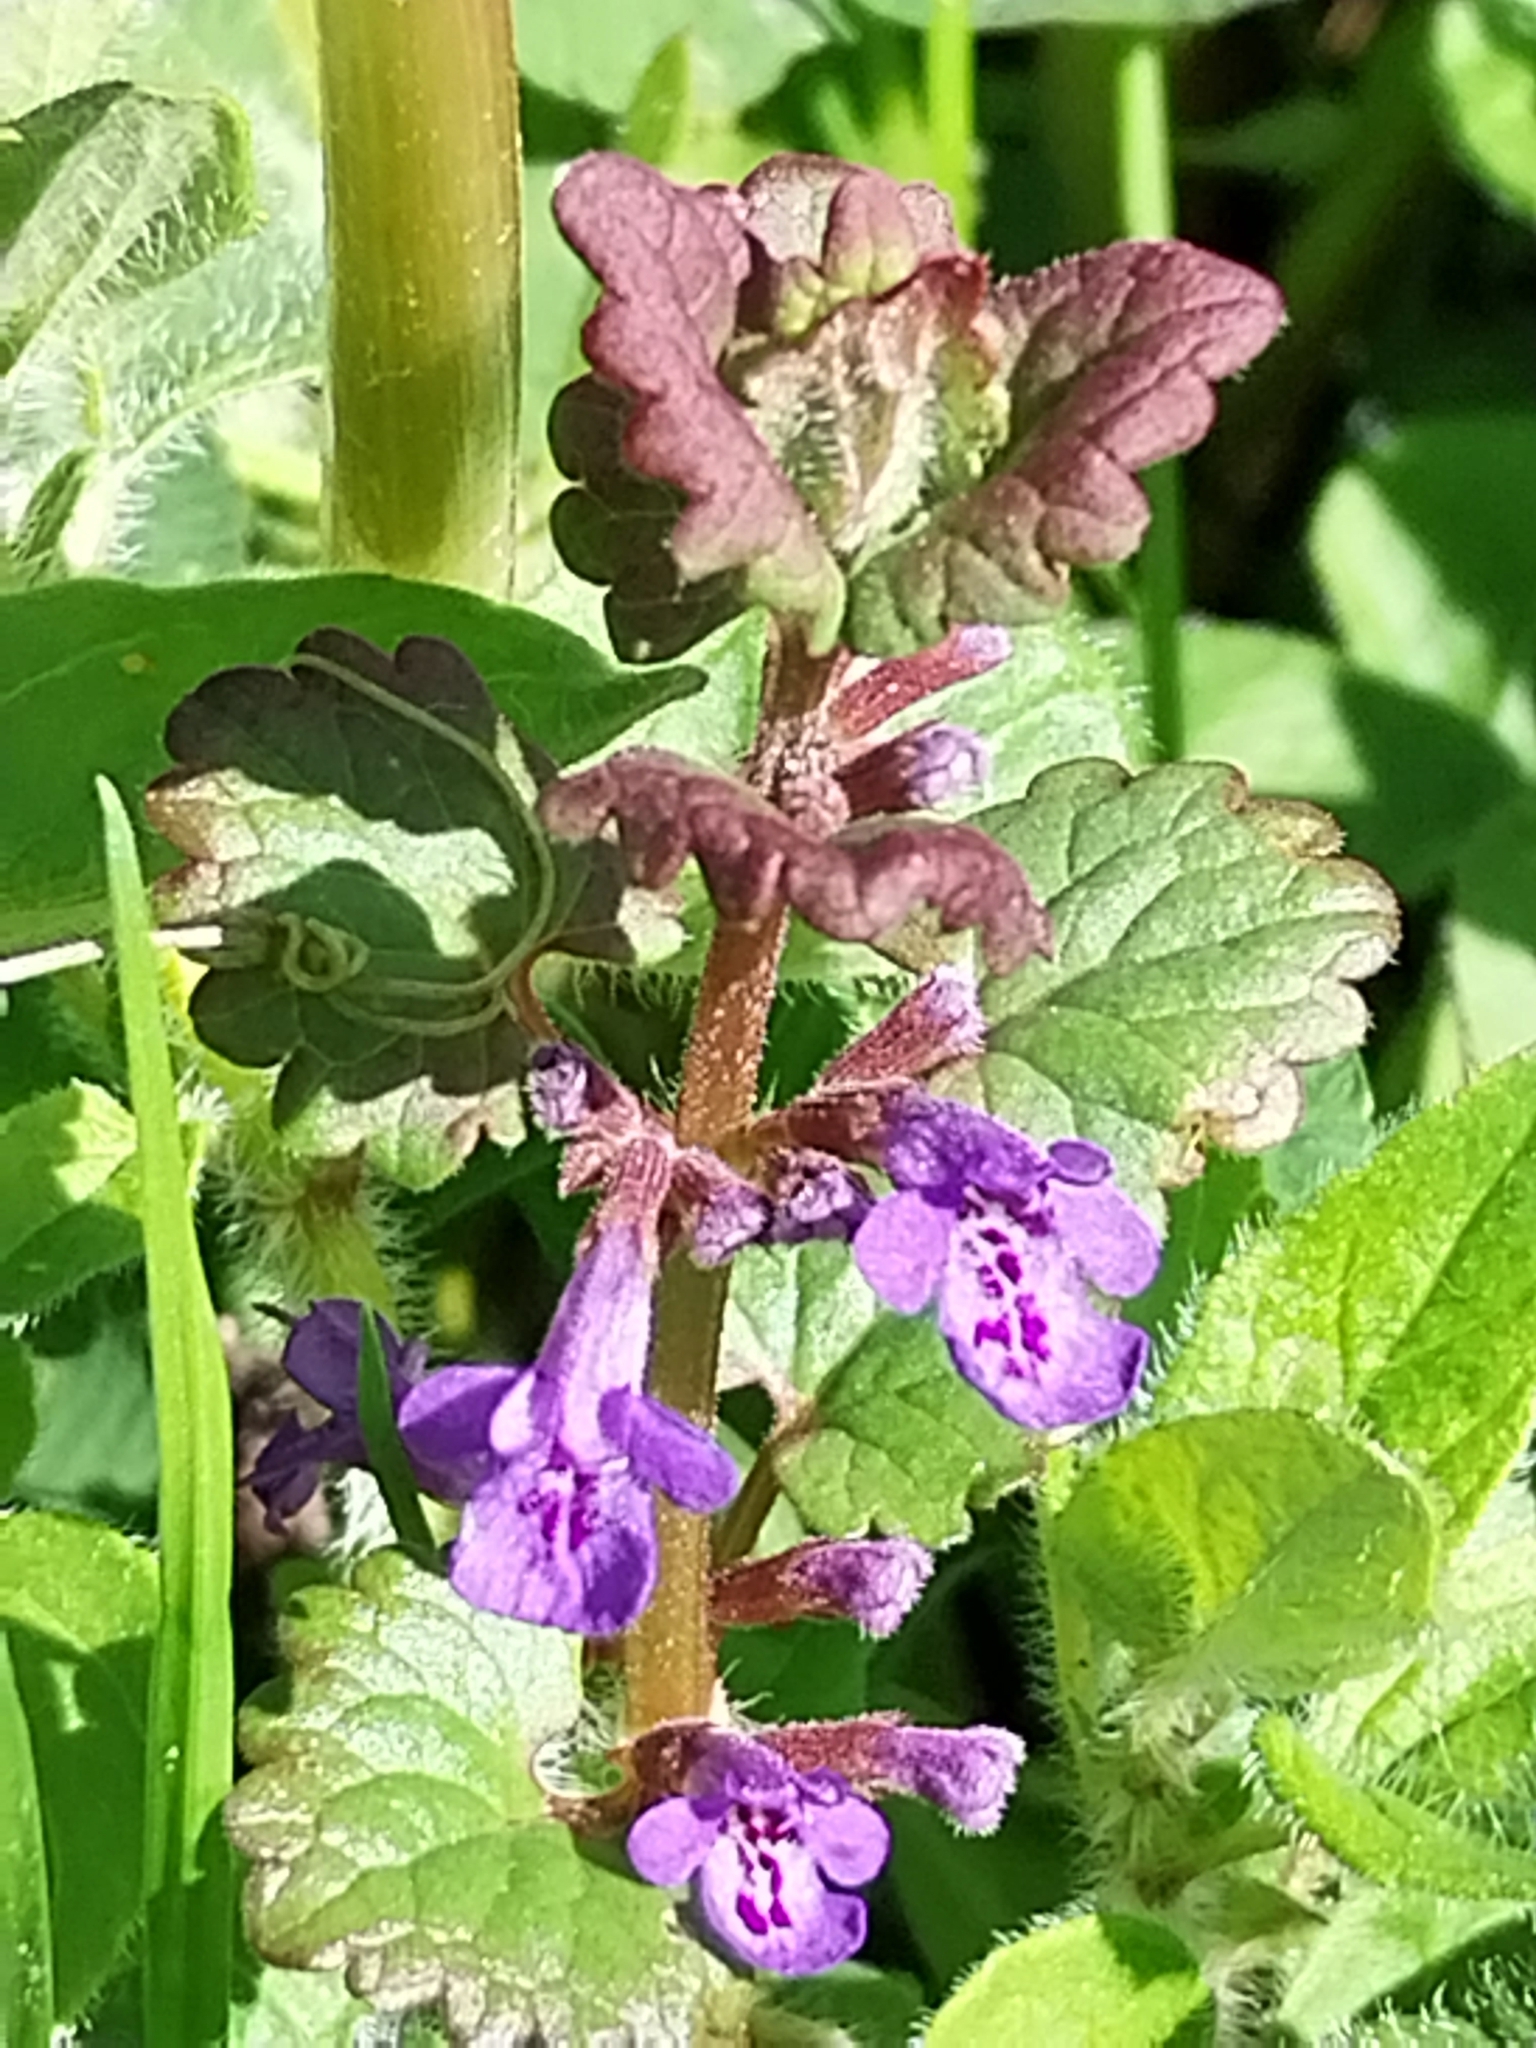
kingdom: Plantae
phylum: Tracheophyta
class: Magnoliopsida
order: Lamiales
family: Lamiaceae
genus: Glechoma
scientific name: Glechoma hederacea
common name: Ground ivy
